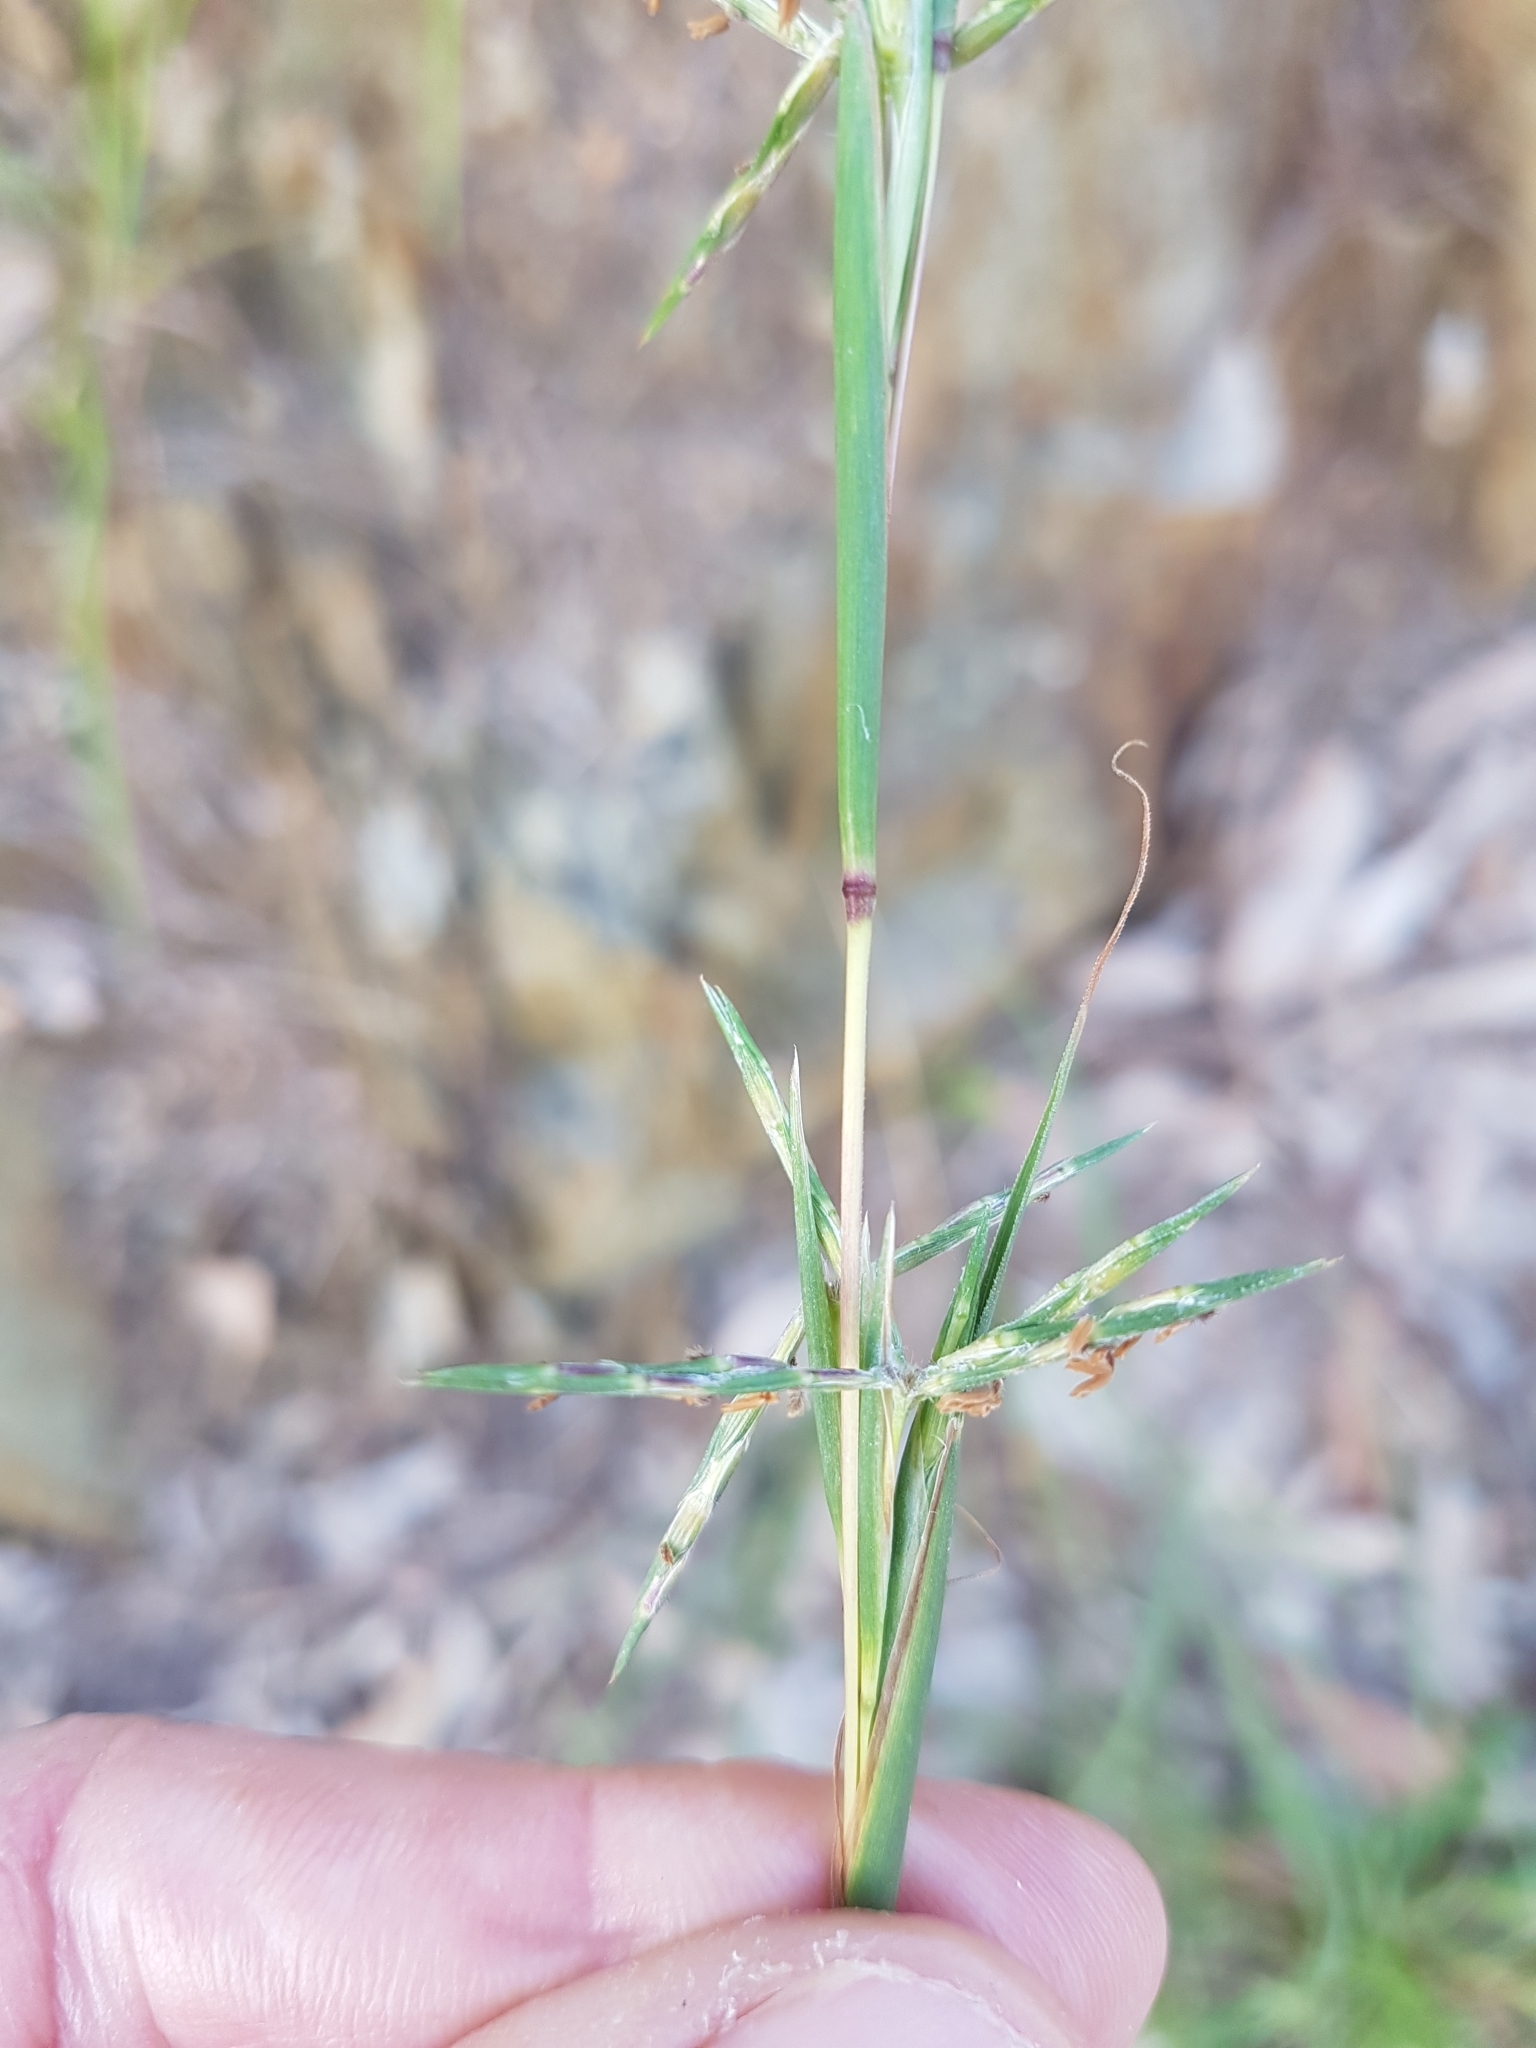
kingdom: Plantae
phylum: Tracheophyta
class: Liliopsida
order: Poales
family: Poaceae
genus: Cymbopogon
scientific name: Cymbopogon refractus
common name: Barbwire grass
